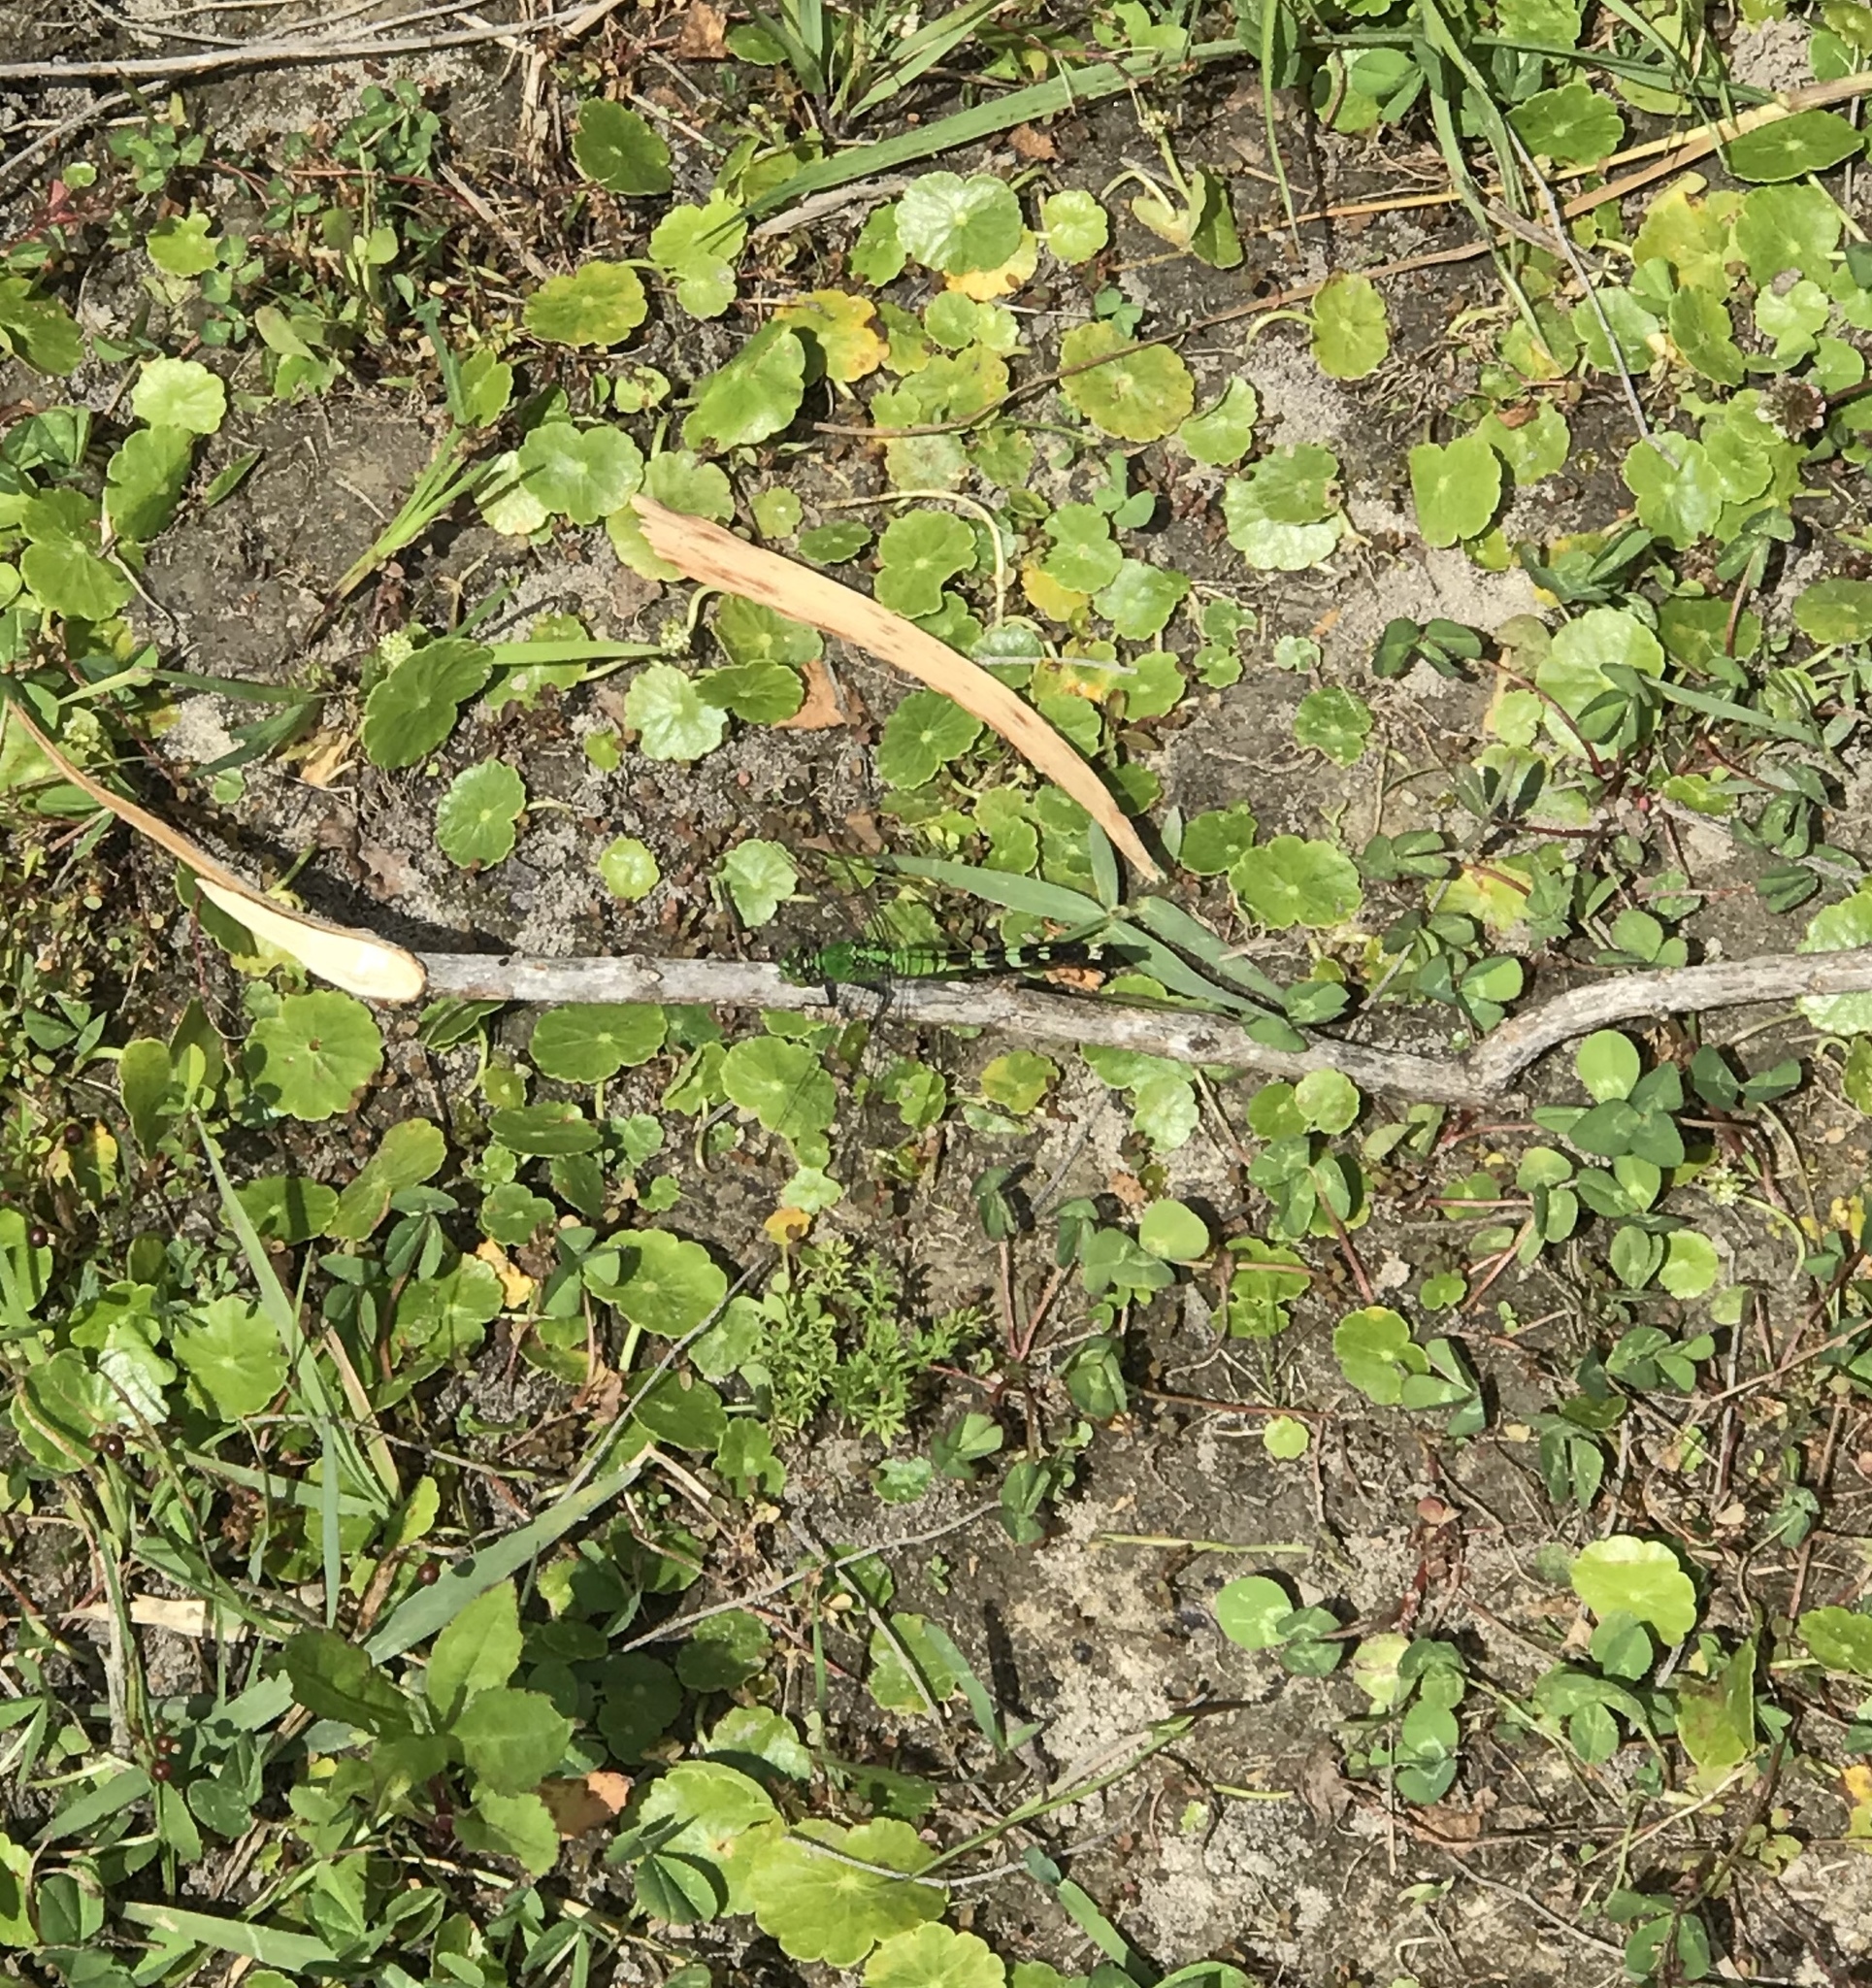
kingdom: Animalia
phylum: Arthropoda
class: Insecta
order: Odonata
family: Libellulidae
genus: Erythemis
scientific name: Erythemis simplicicollis
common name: Eastern pondhawk
